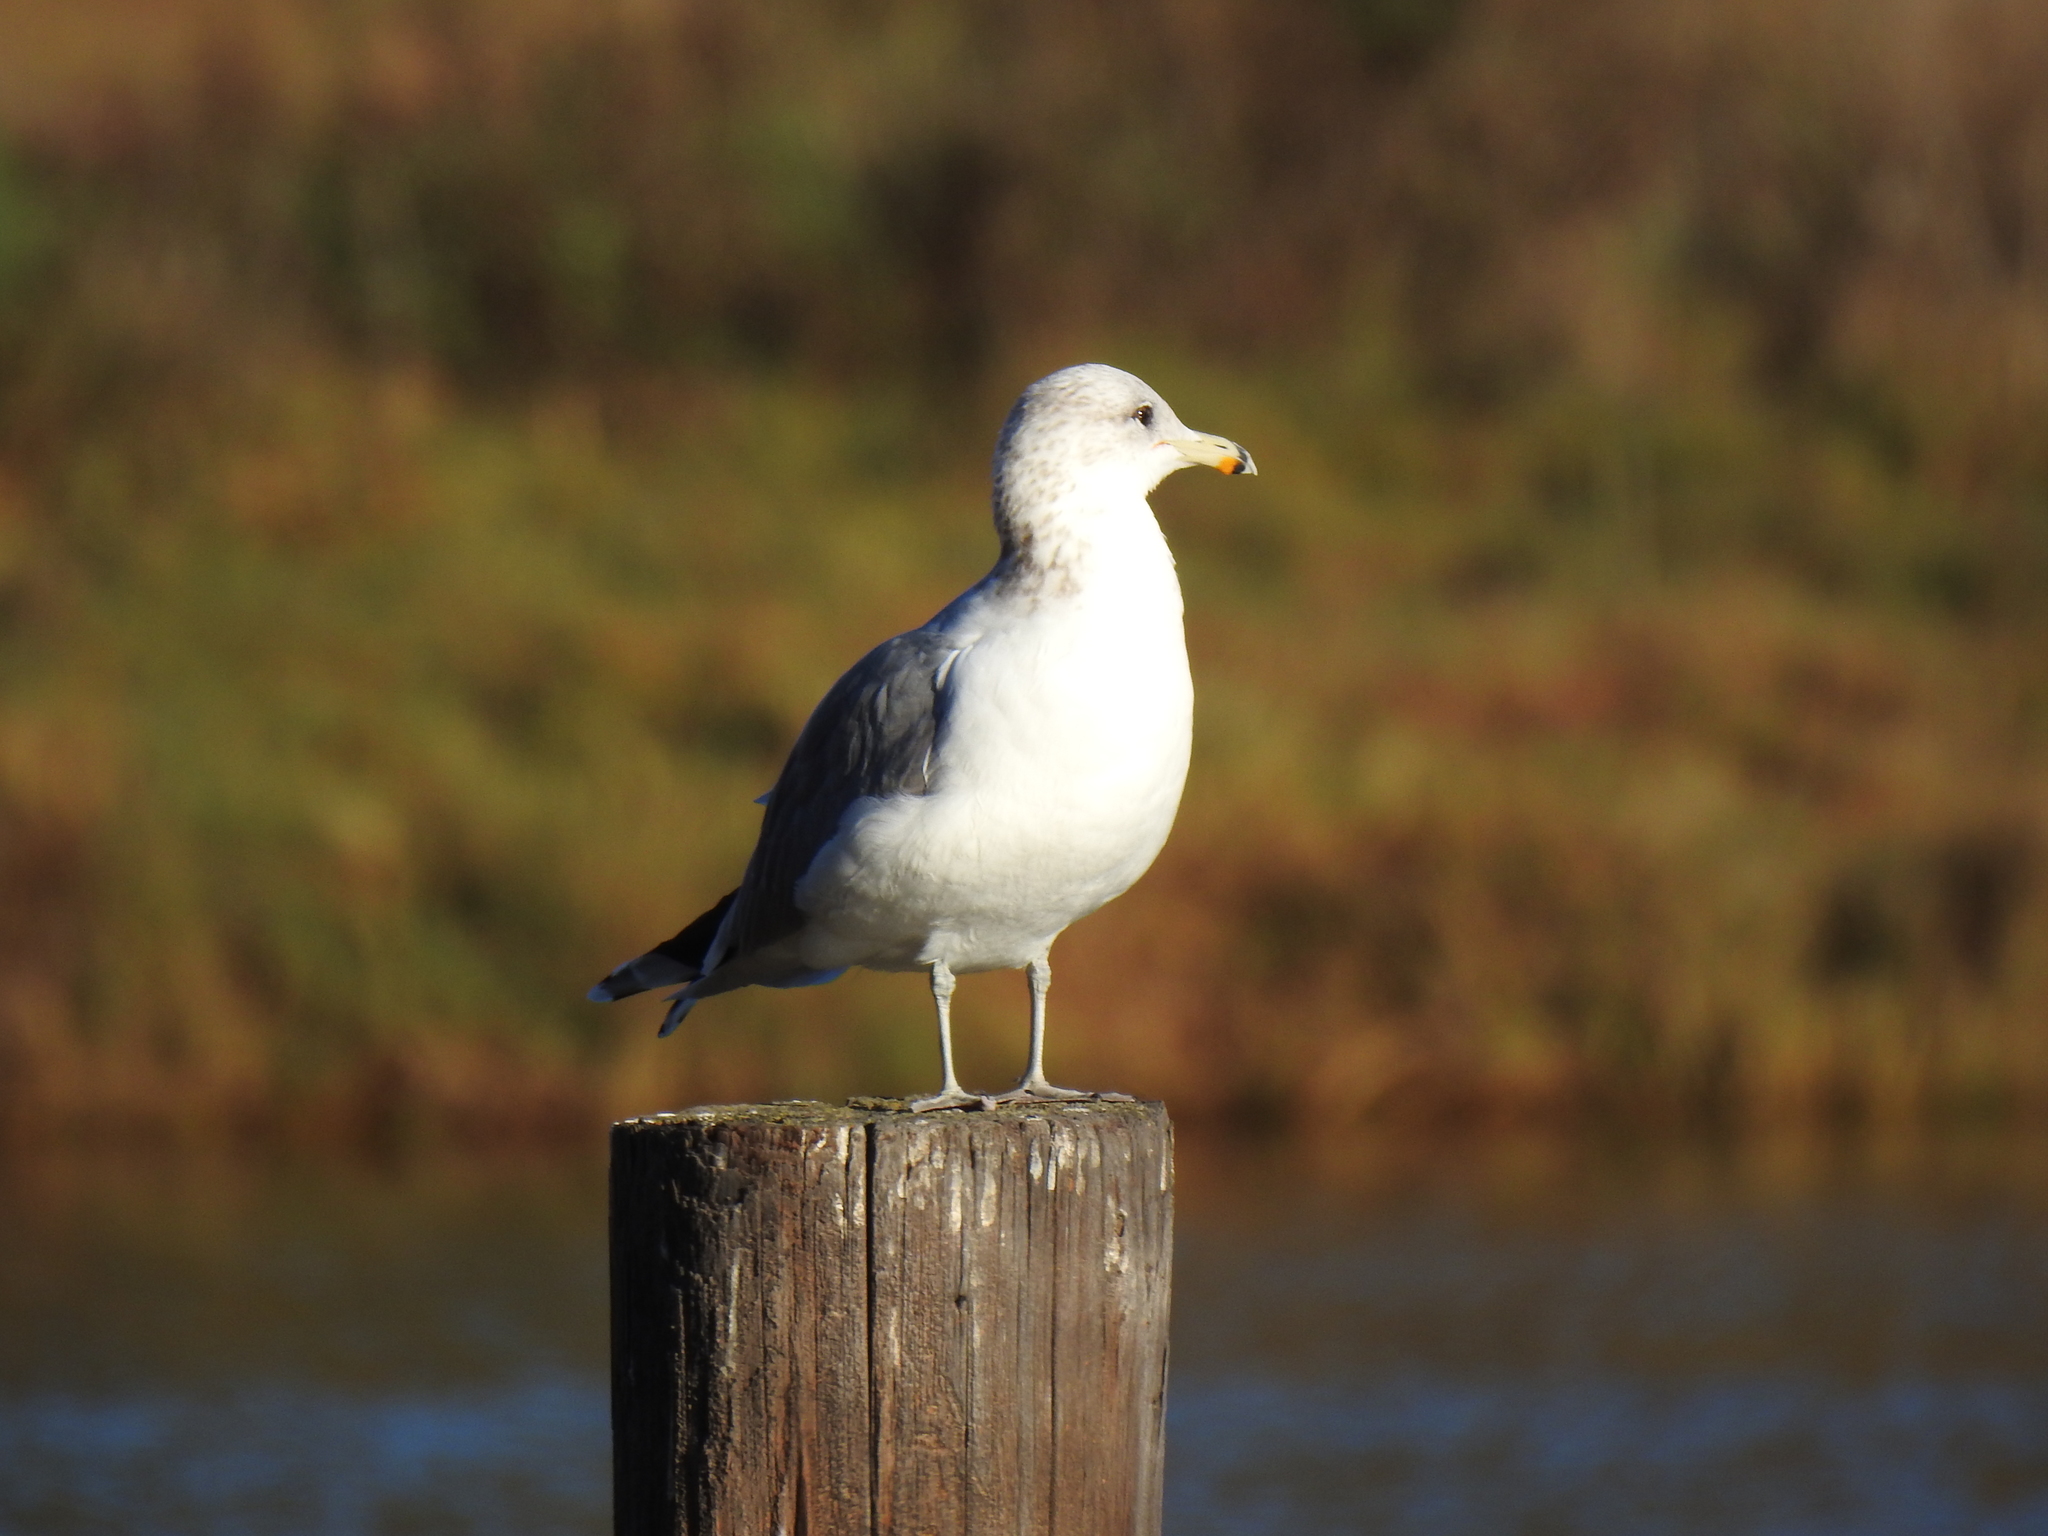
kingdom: Animalia
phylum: Chordata
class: Aves
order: Charadriiformes
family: Laridae
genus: Larus
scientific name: Larus californicus
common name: California gull
